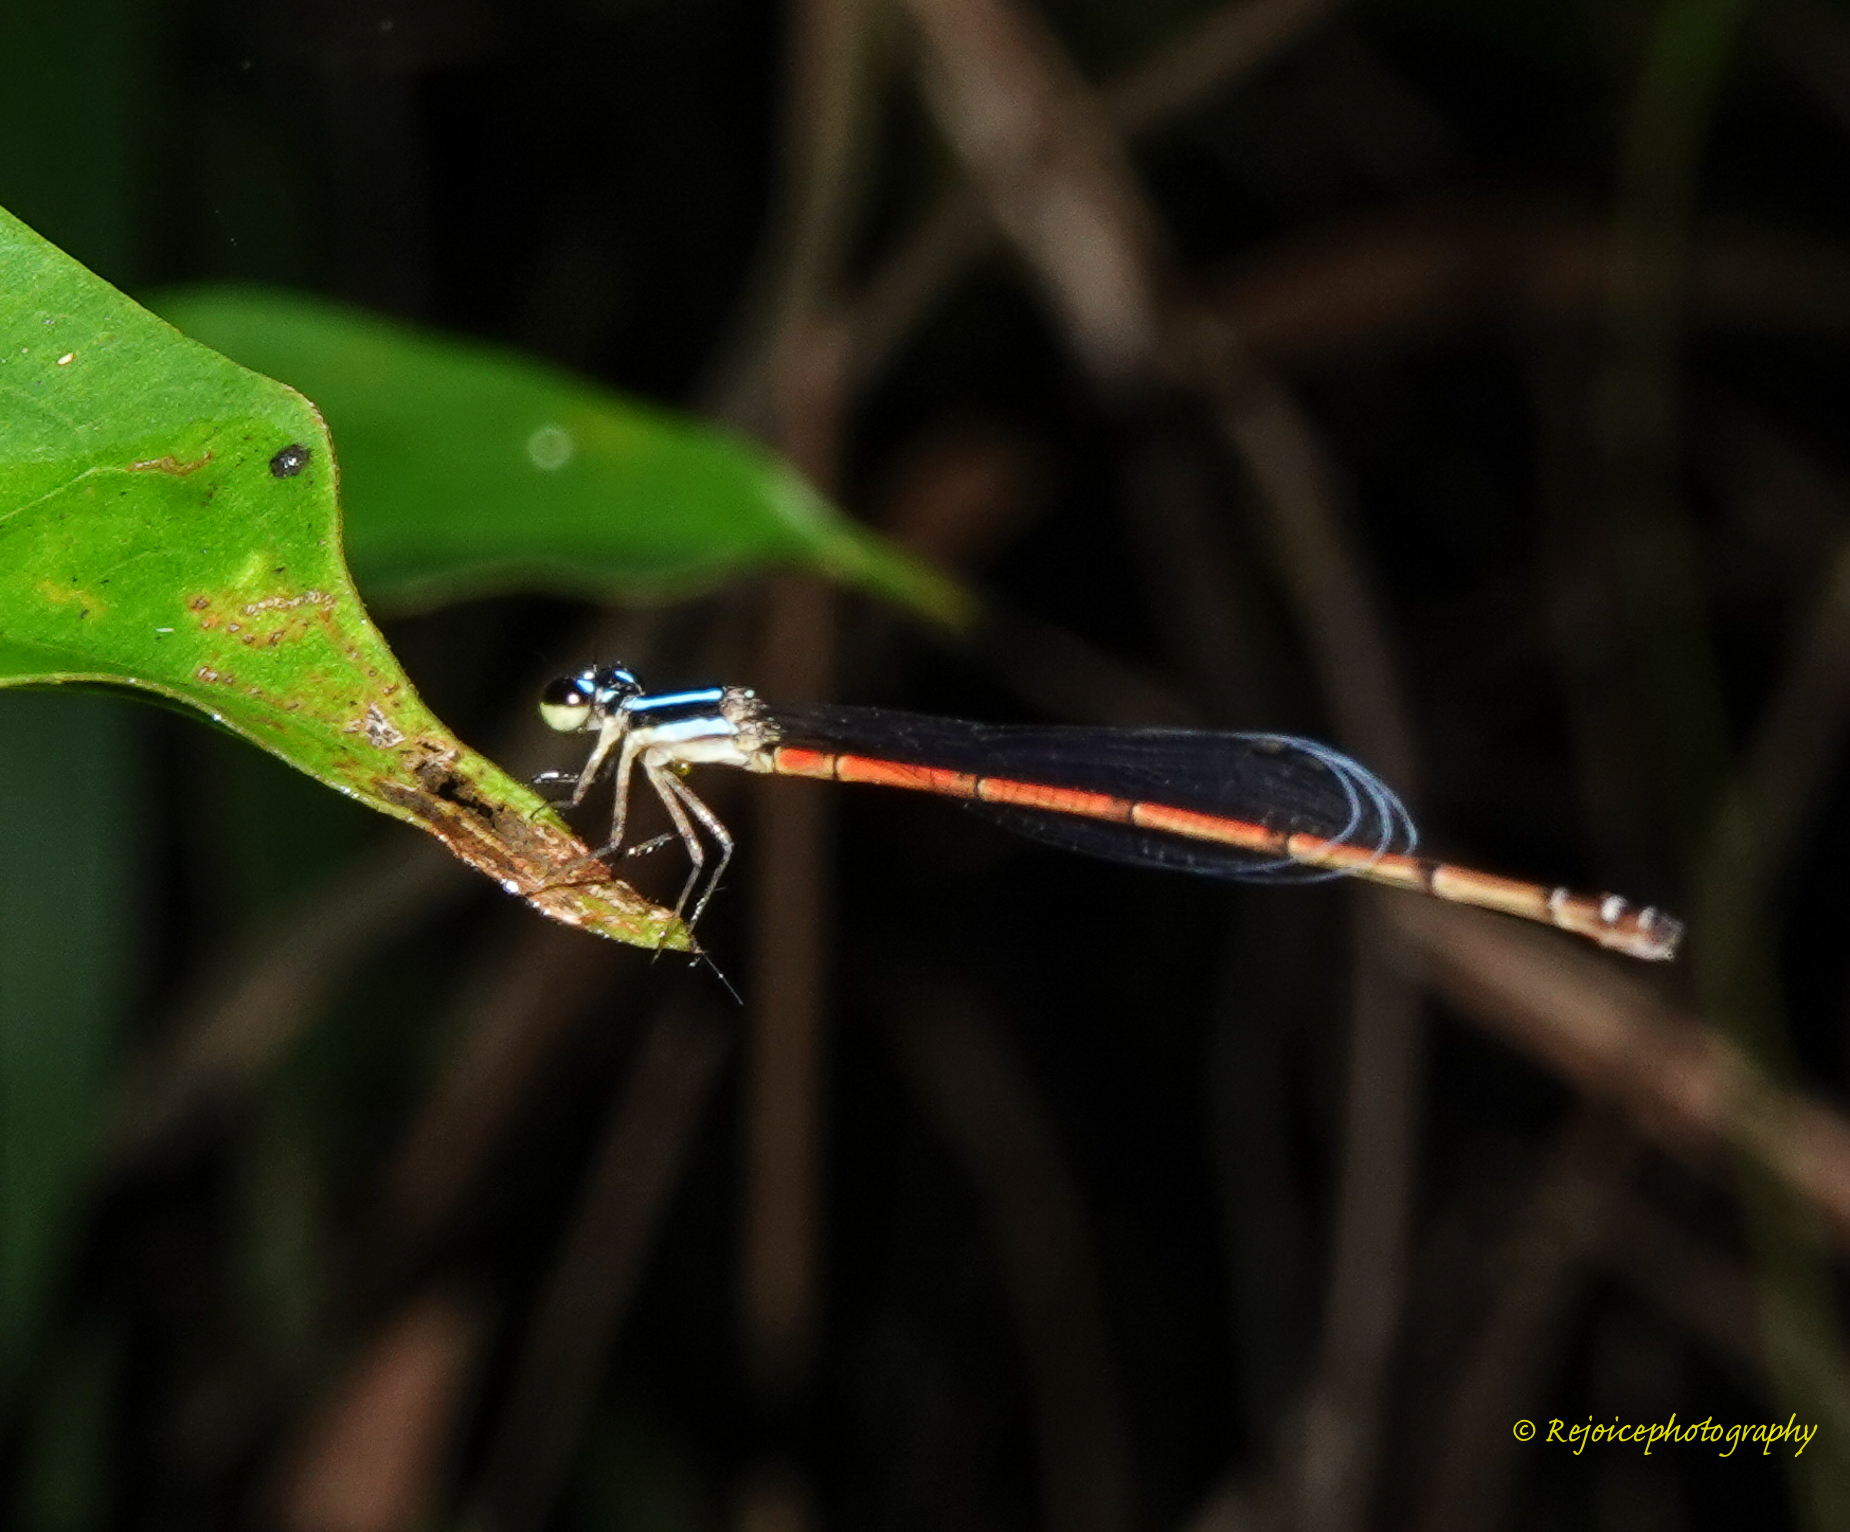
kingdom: Animalia
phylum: Arthropoda
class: Insecta
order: Odonata
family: Coenagrionidae
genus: Mortonagrion
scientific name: Mortonagrion aborense
